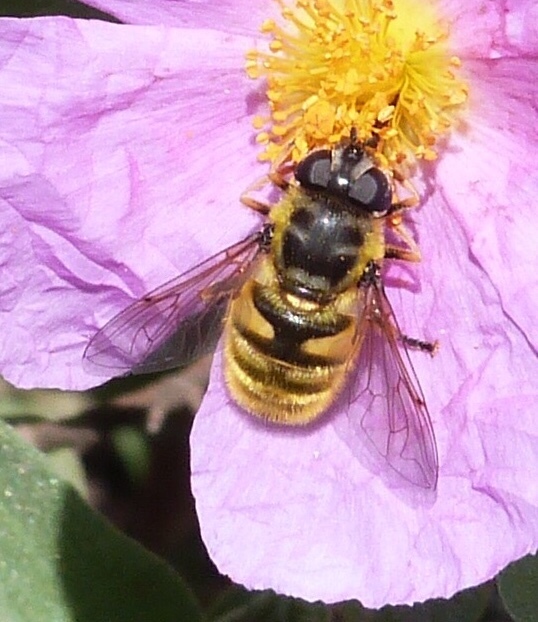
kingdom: Animalia
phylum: Arthropoda
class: Insecta
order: Diptera
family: Syrphidae
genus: Myathropa
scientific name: Myathropa florea
